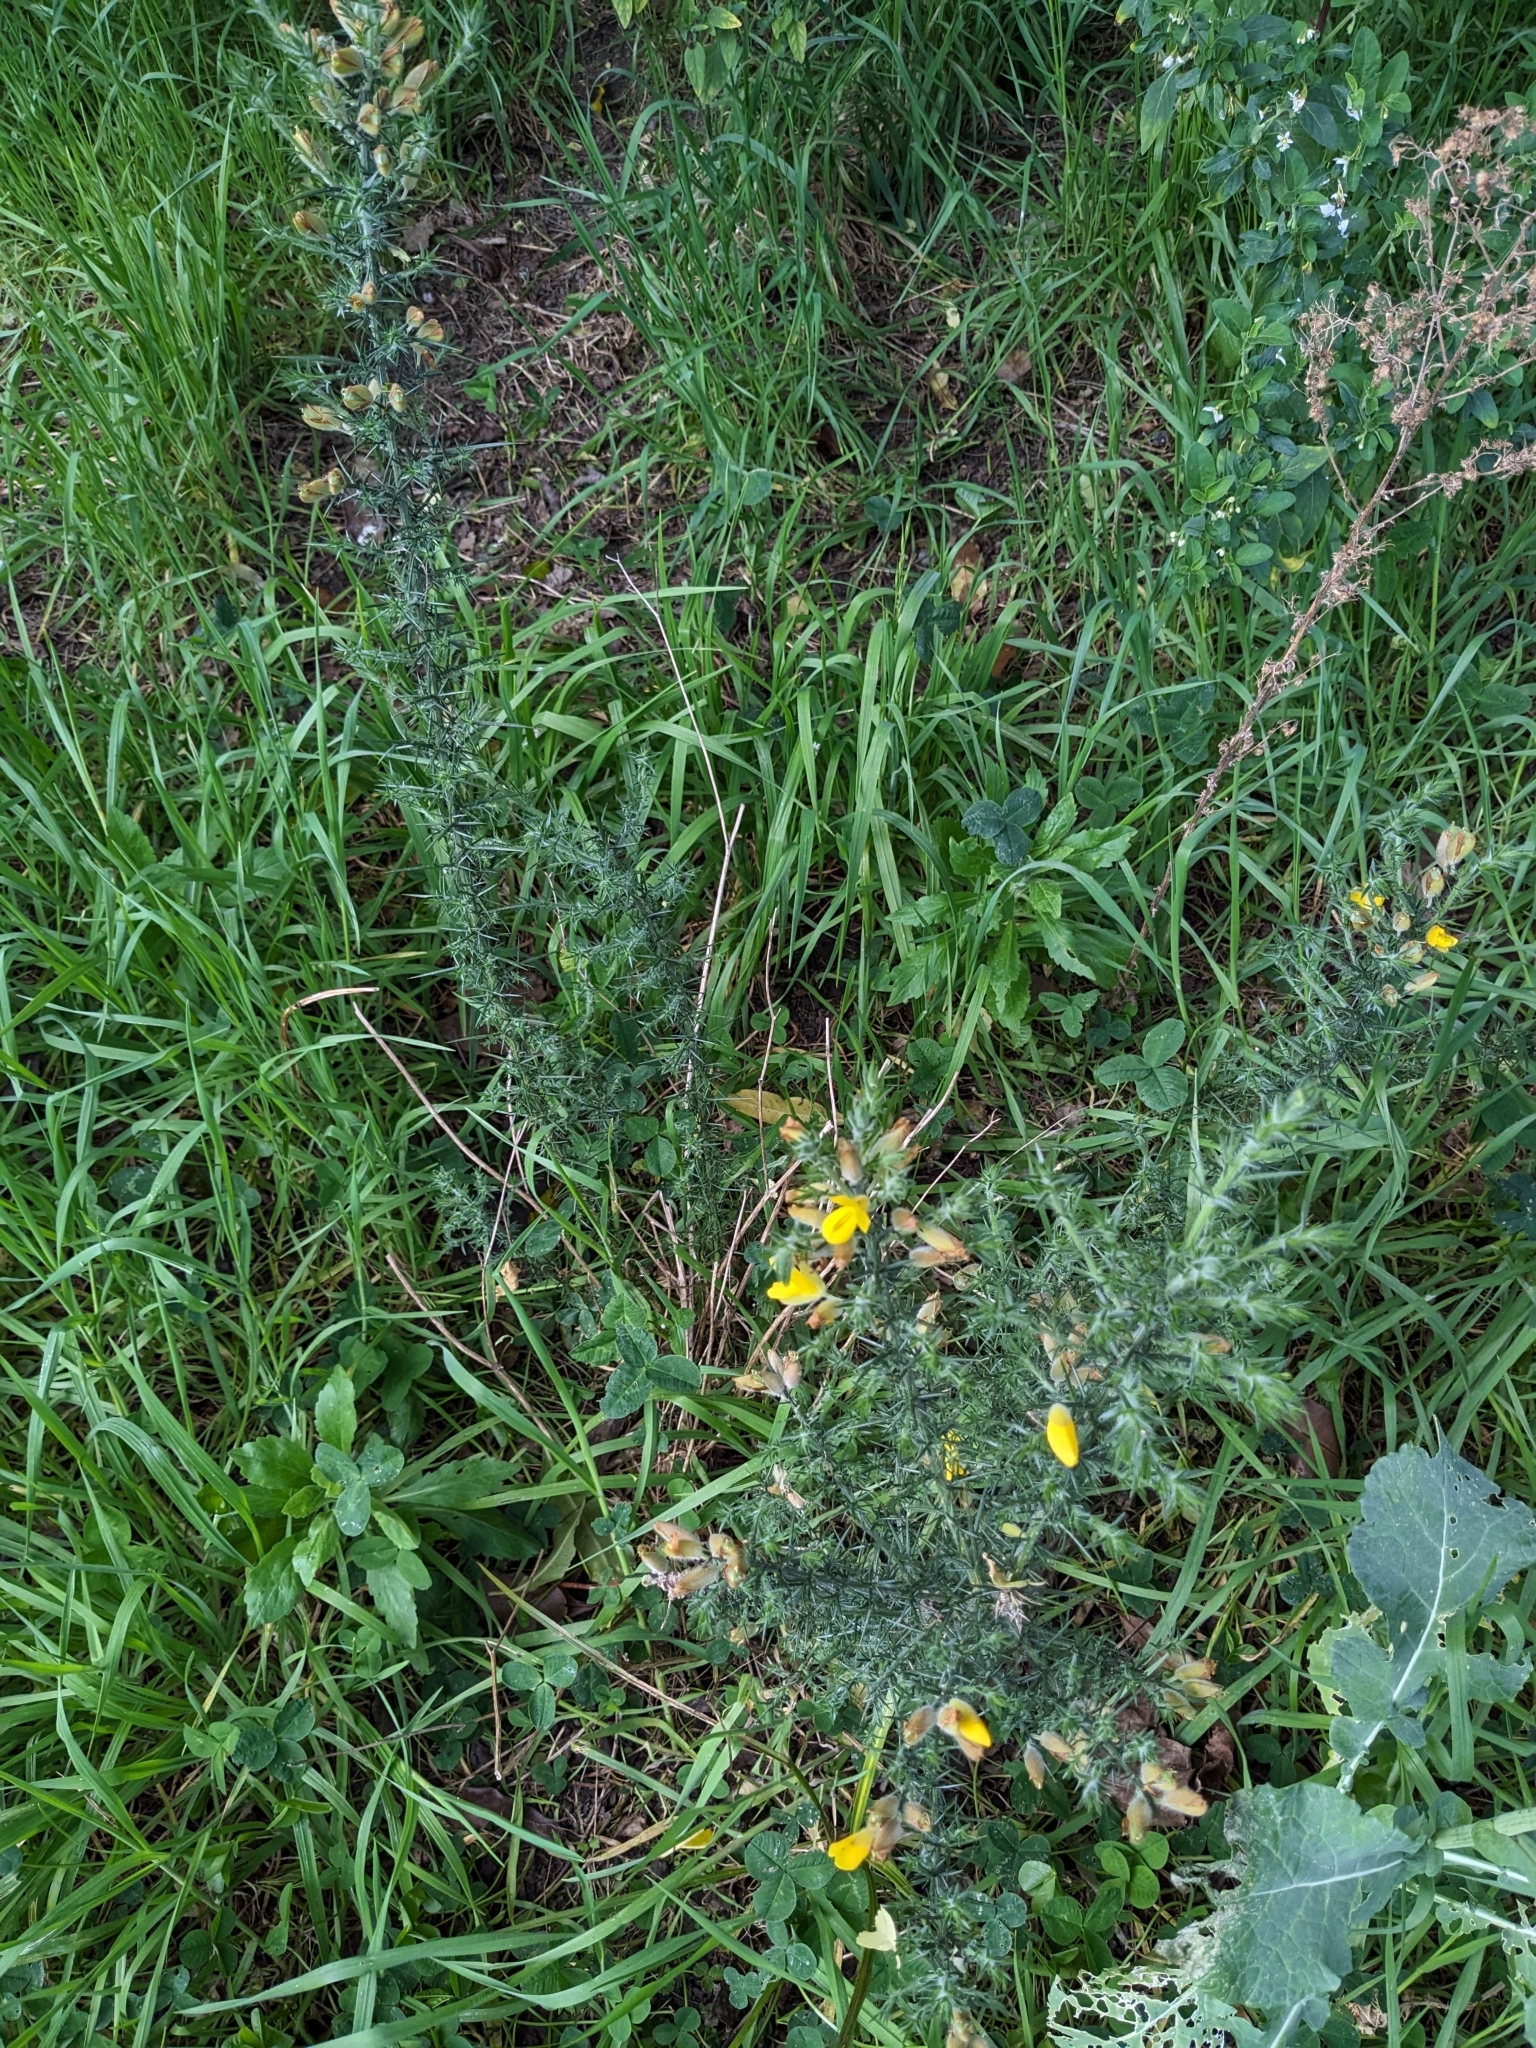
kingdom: Plantae
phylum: Tracheophyta
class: Magnoliopsida
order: Fabales
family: Fabaceae
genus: Ulex
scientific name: Ulex europaeus
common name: Common gorse
